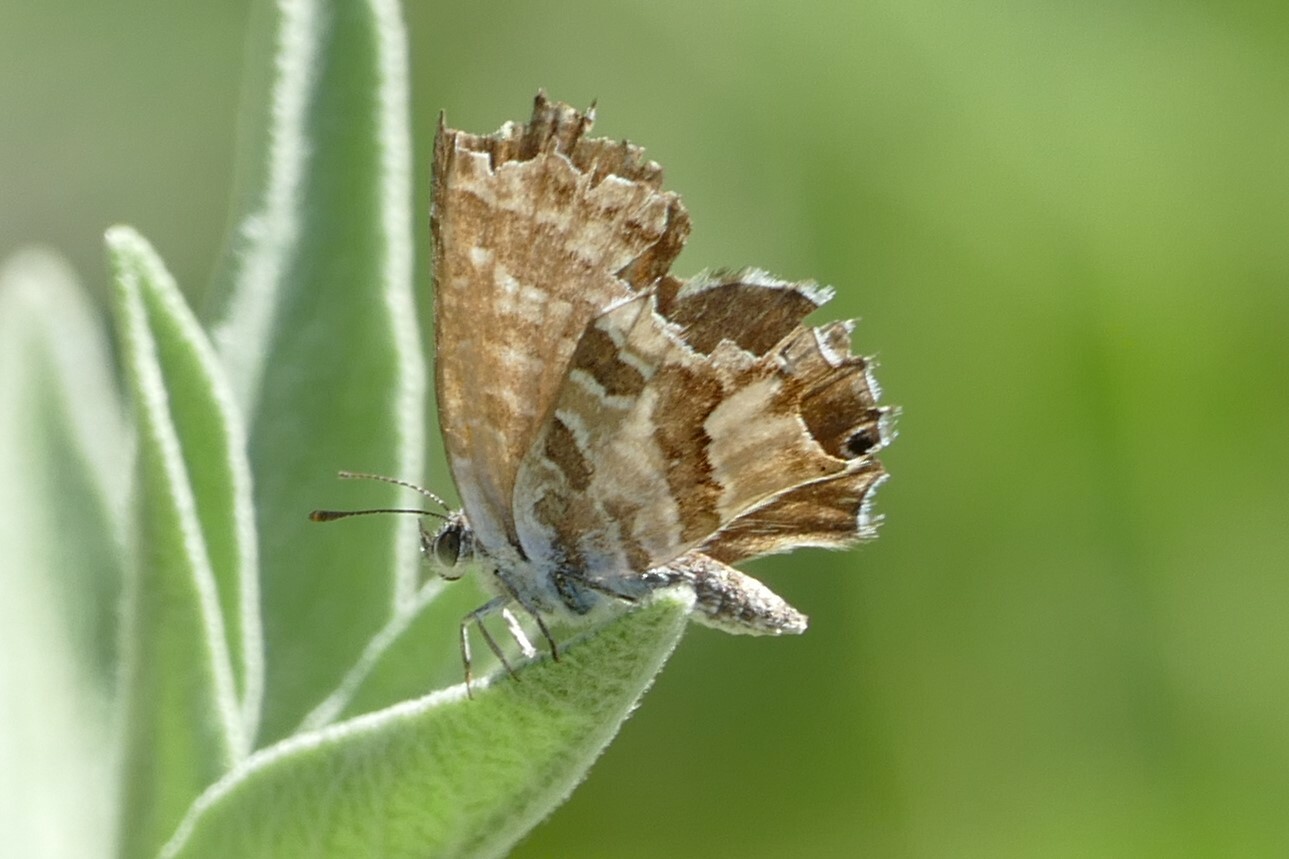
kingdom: Animalia
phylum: Arthropoda
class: Insecta
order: Lepidoptera
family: Lycaenidae
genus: Cacyreus
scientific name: Cacyreus marshalli
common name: Geranium bronze
